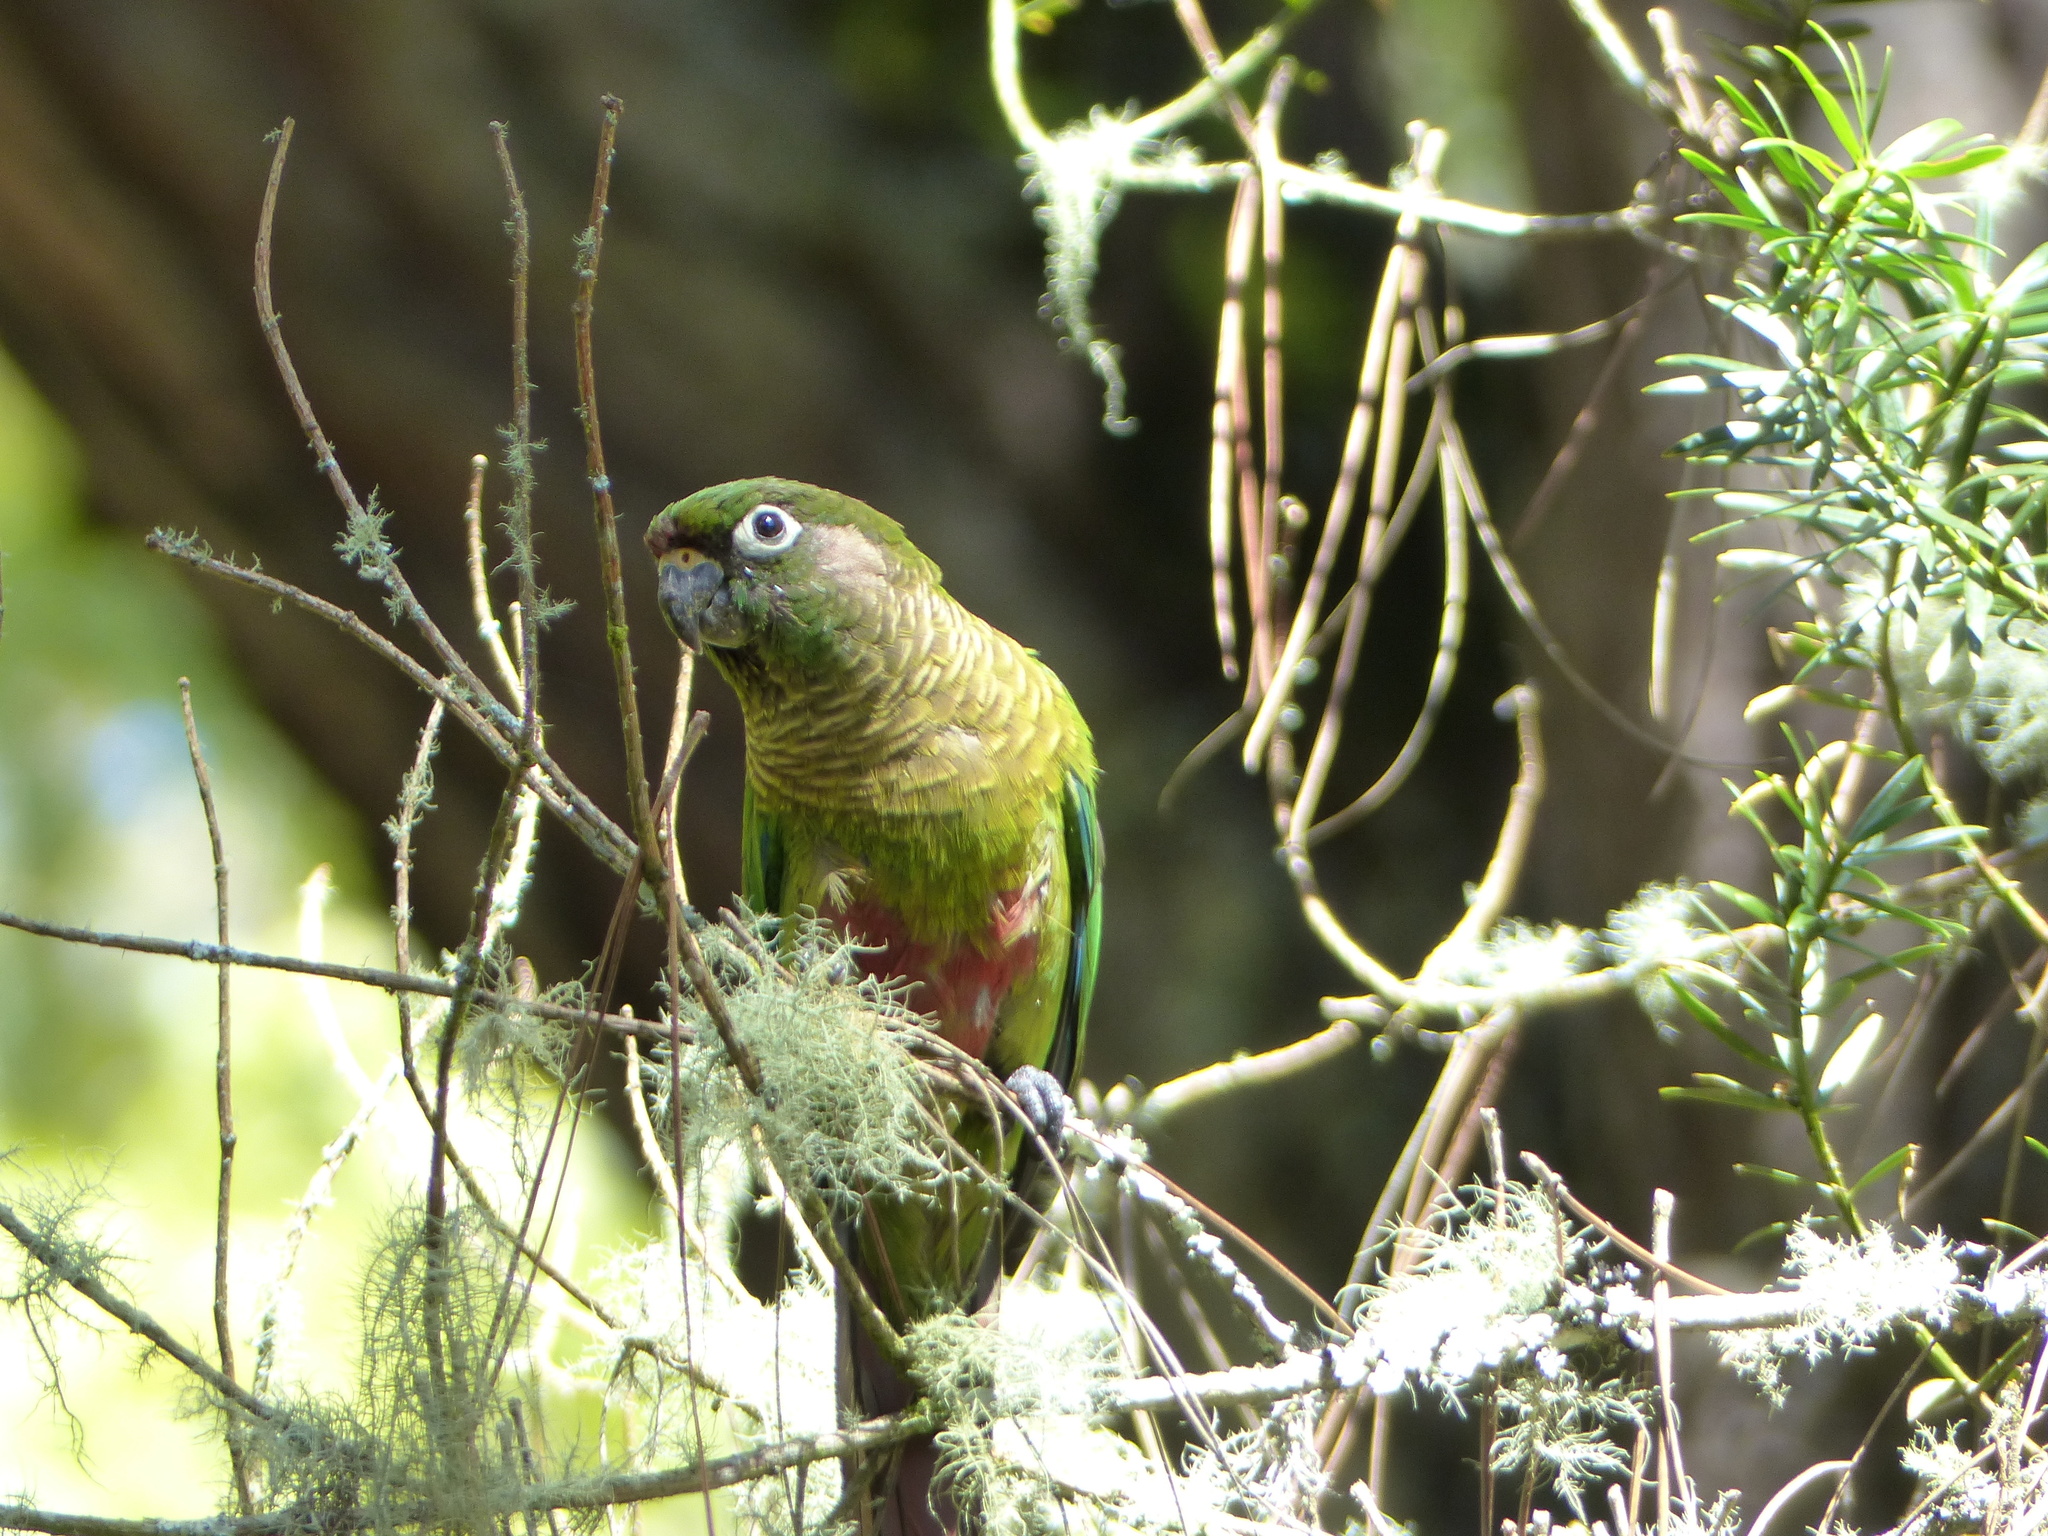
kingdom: Animalia
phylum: Chordata
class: Aves
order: Psittaciformes
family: Psittacidae
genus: Pyrrhura
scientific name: Pyrrhura frontalis
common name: Maroon-bellied parakeet
